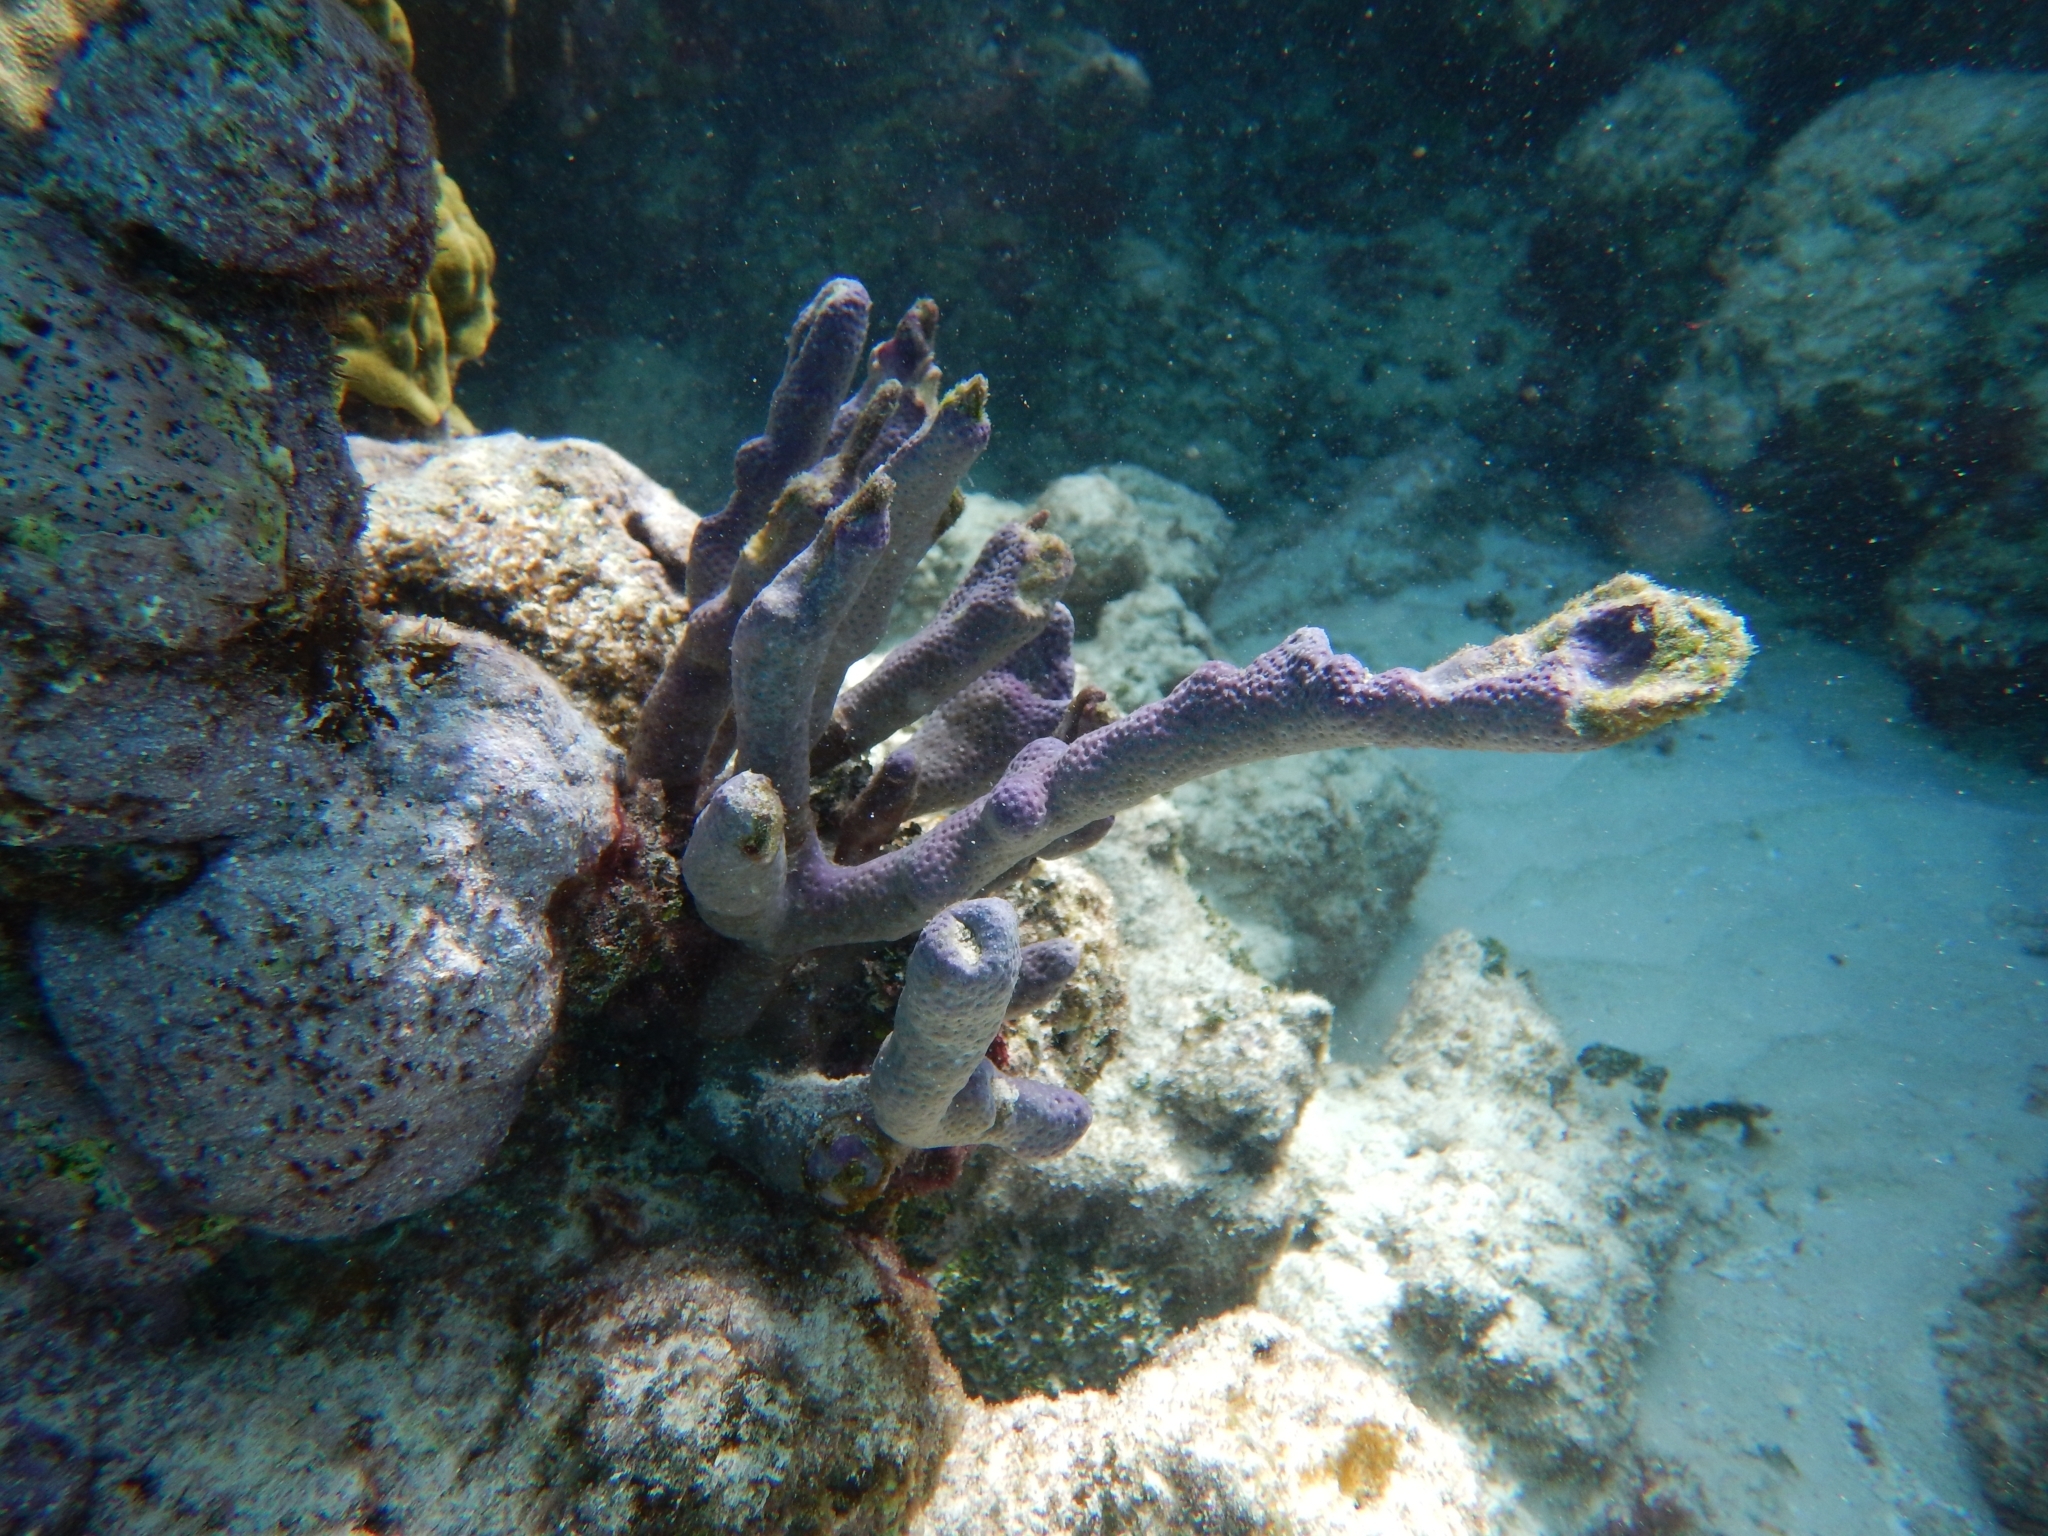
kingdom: Animalia
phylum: Cnidaria
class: Anthozoa
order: Scleralcyonacea
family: Briareidae
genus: Briareum
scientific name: Briareum asbestinum
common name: Corky sea finger
